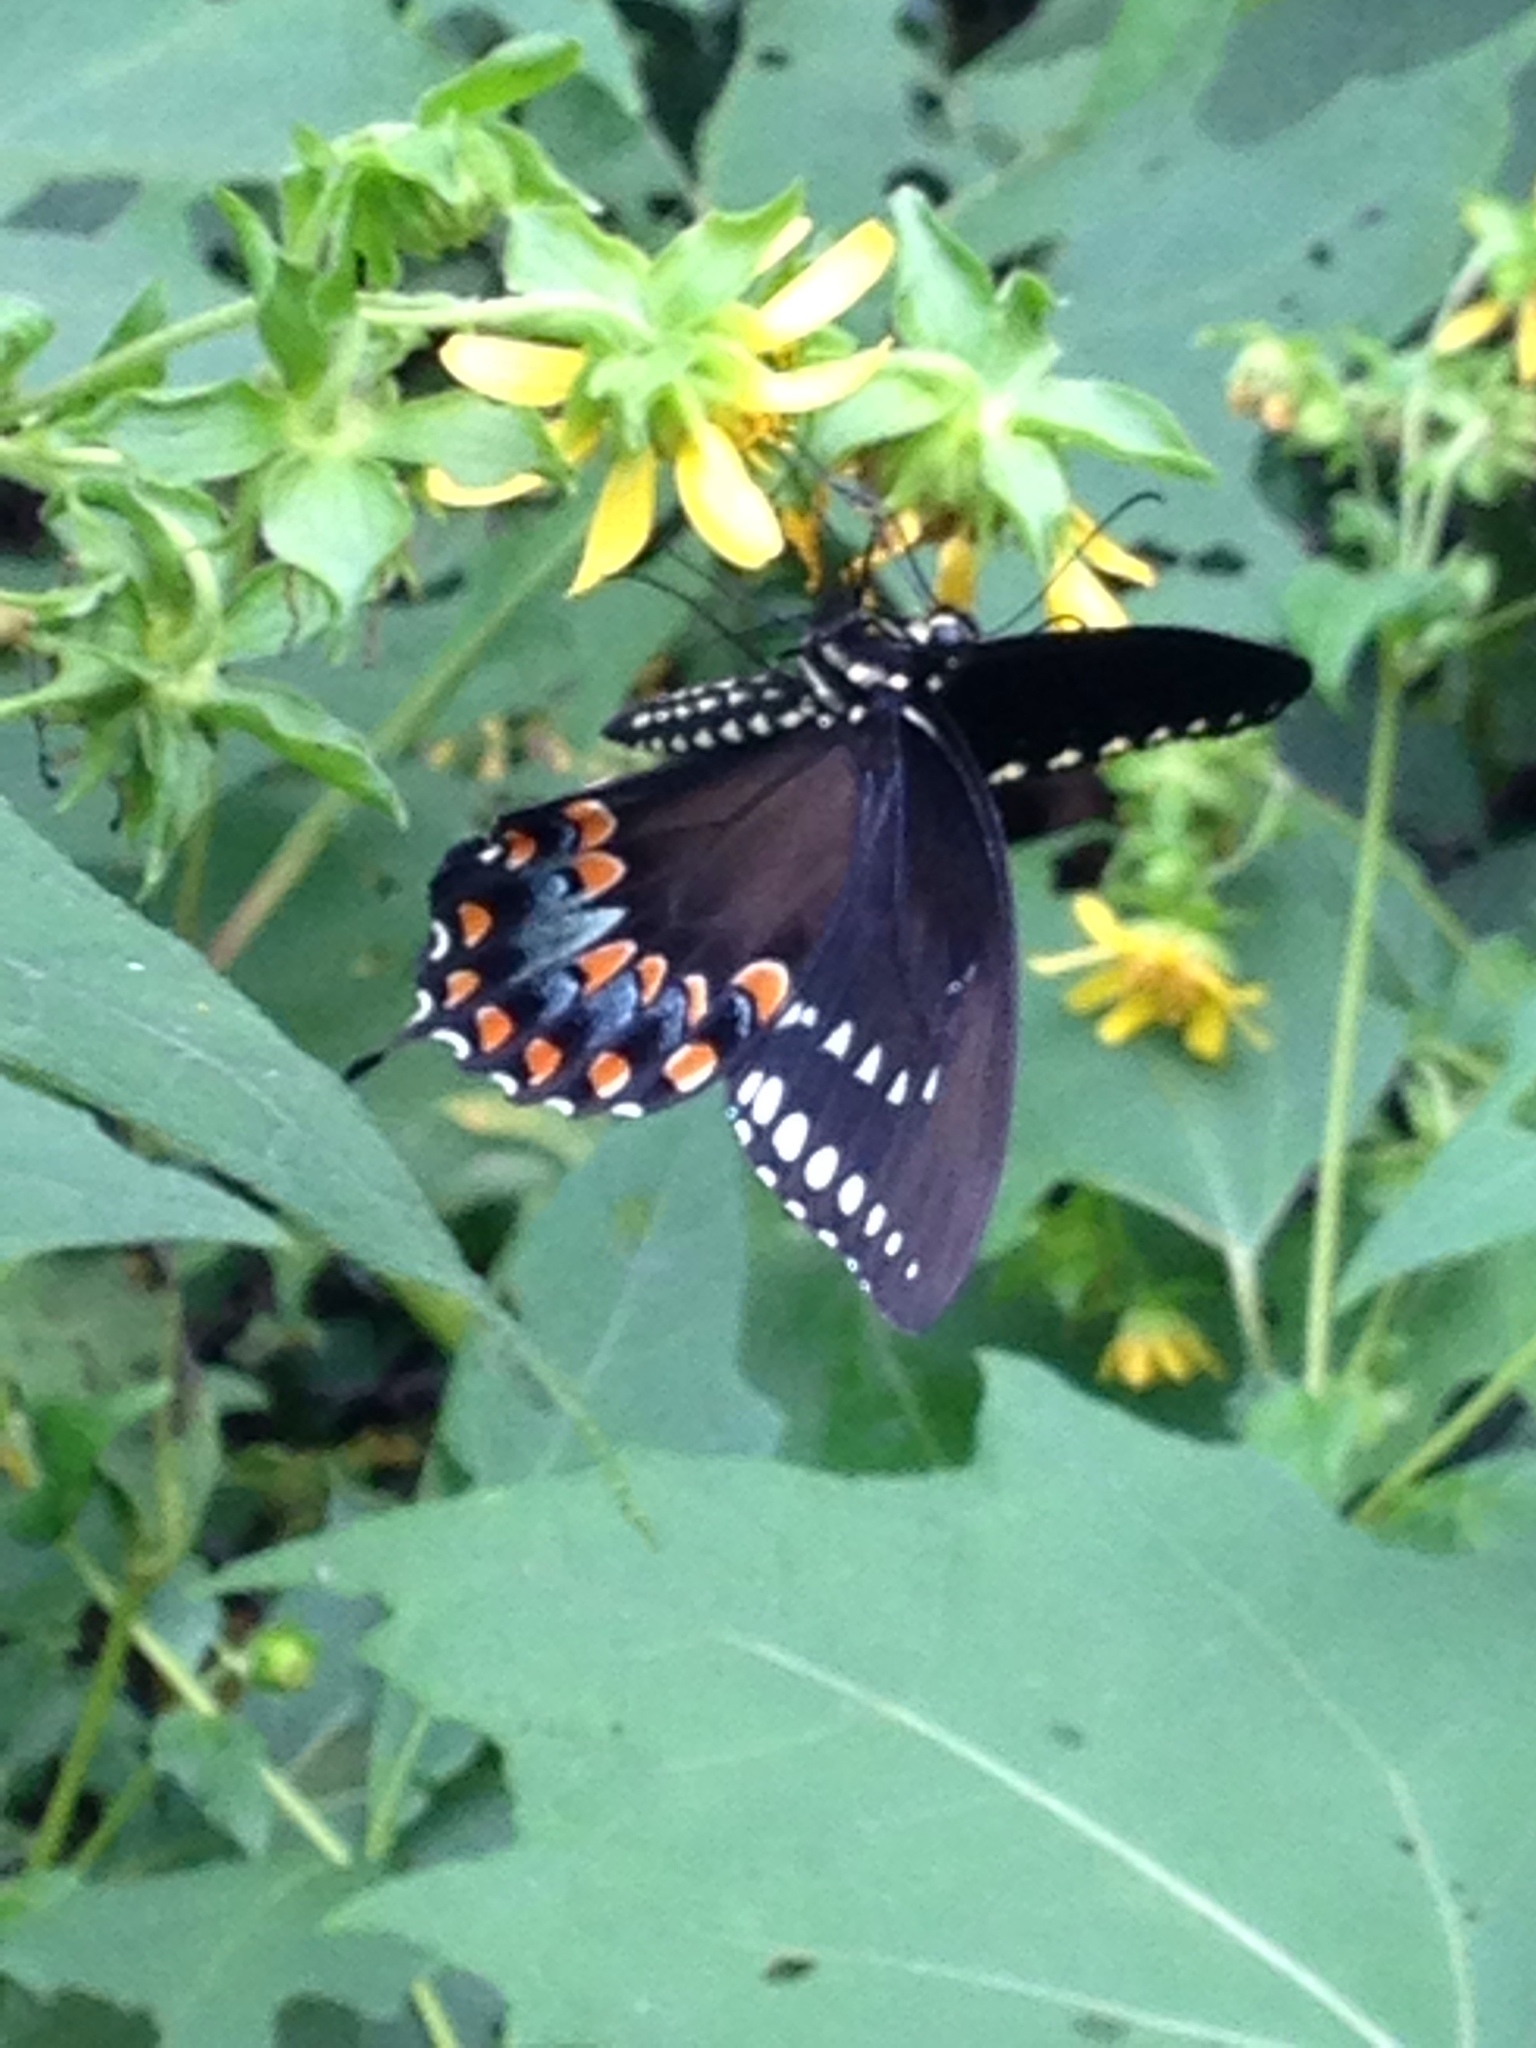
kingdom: Animalia
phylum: Arthropoda
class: Insecta
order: Lepidoptera
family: Papilionidae
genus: Papilio
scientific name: Papilio troilus
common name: Spicebush swallowtail
